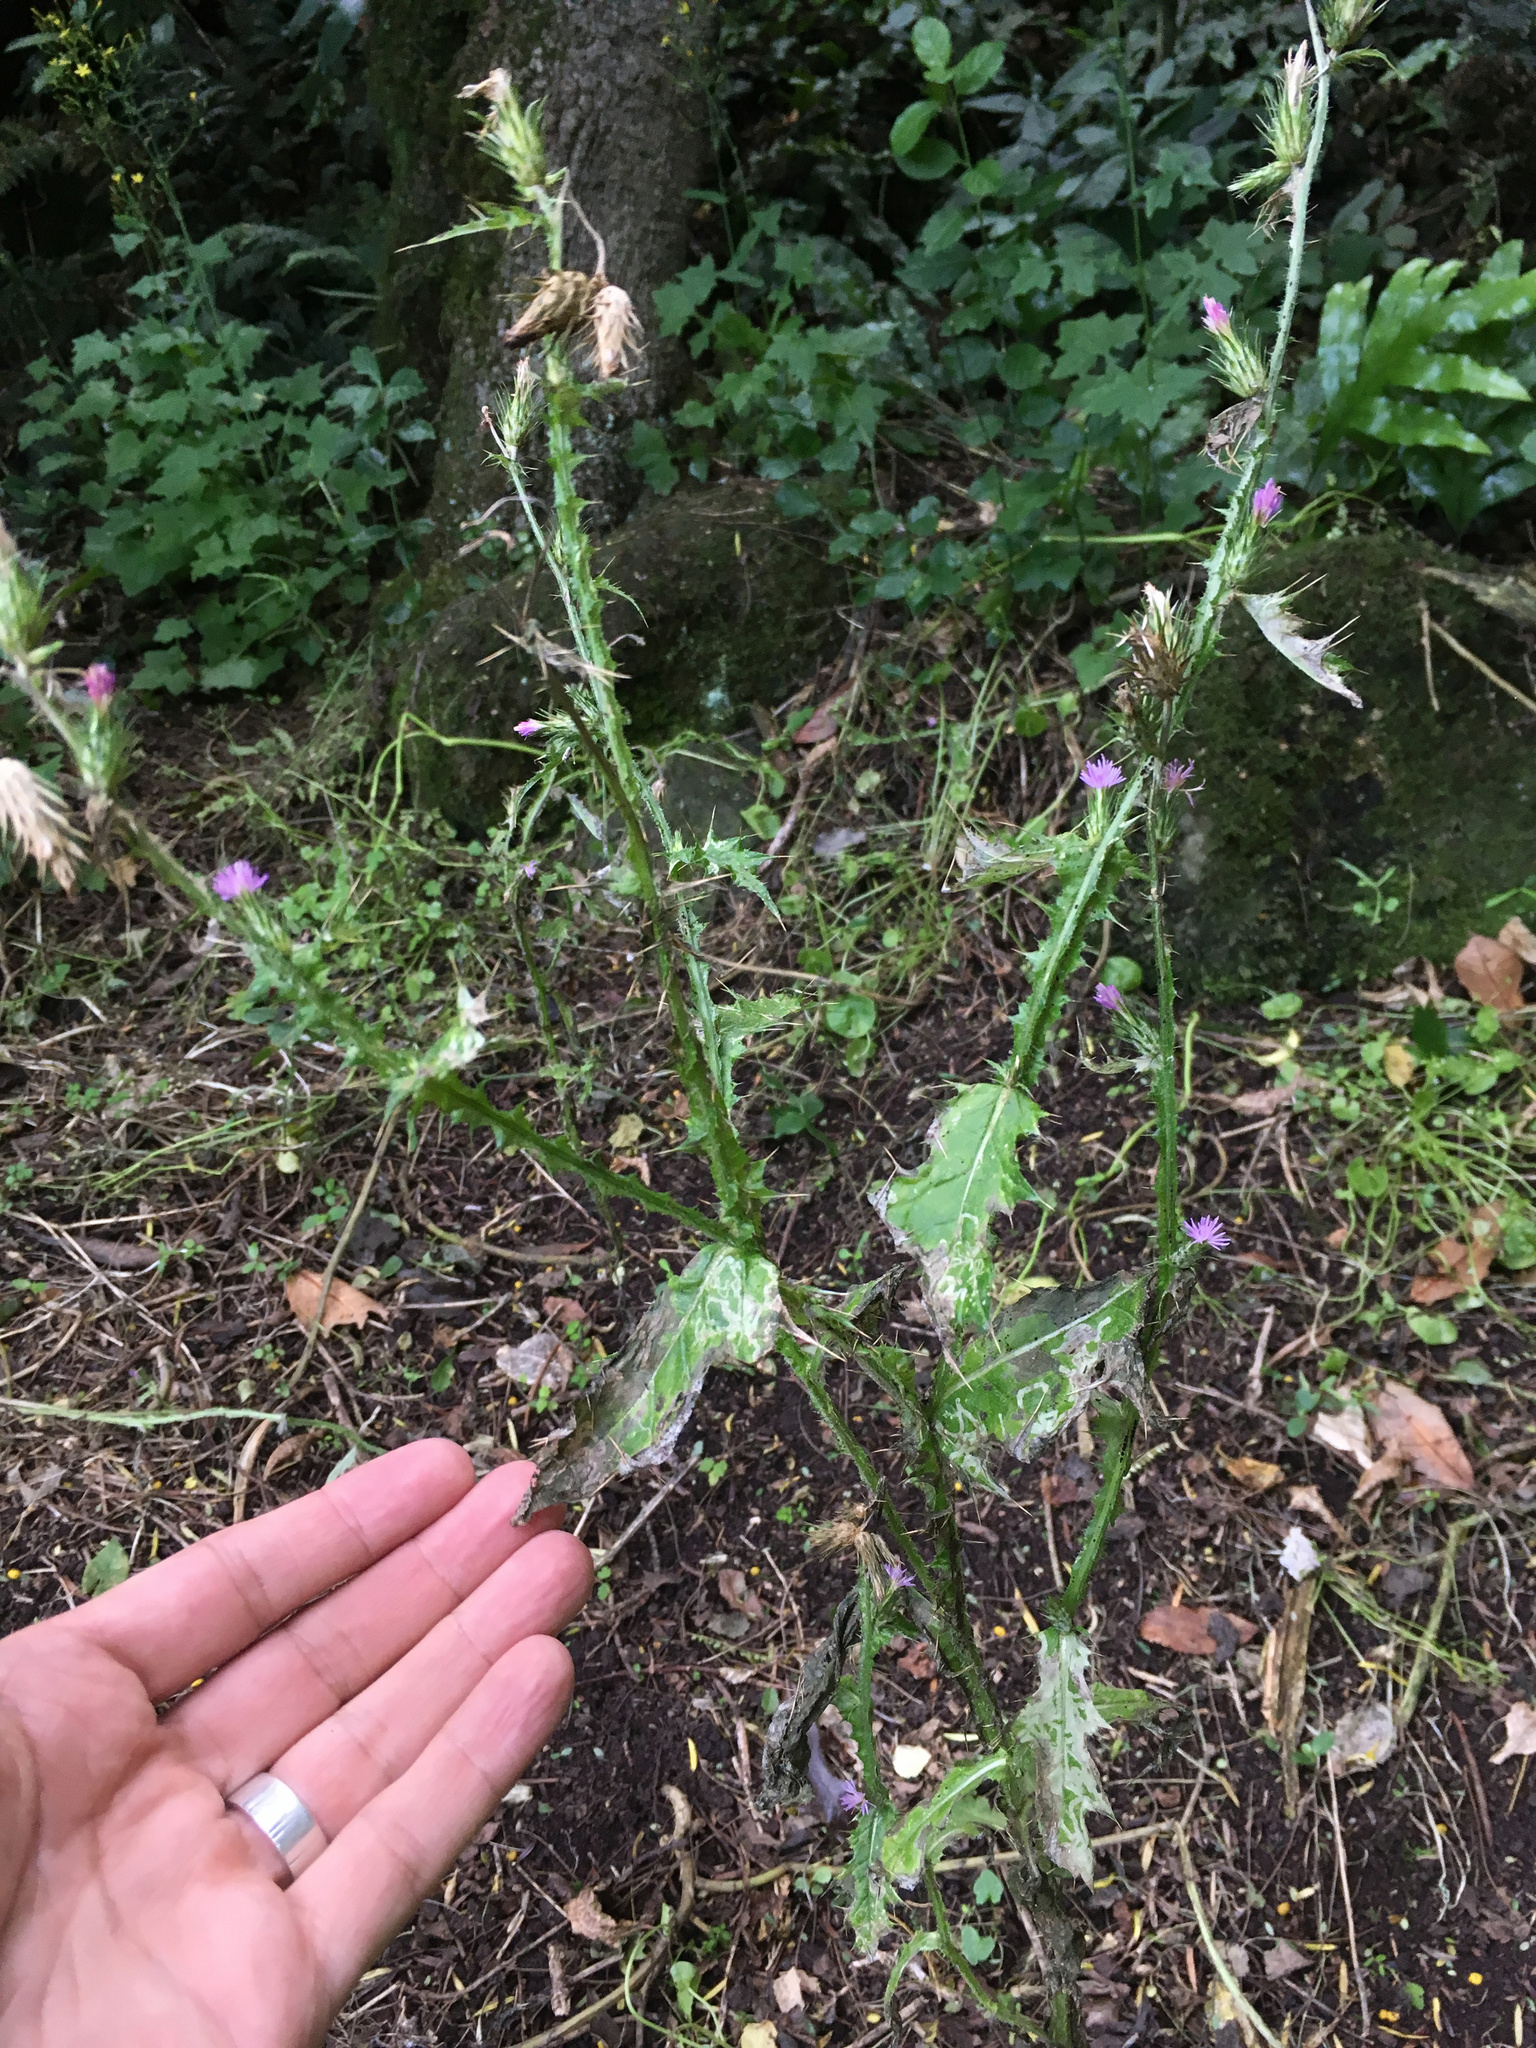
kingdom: Plantae
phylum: Tracheophyta
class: Magnoliopsida
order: Asterales
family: Asteraceae
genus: Carduus
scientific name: Carduus pycnocephalus
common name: Plymouth thistle
